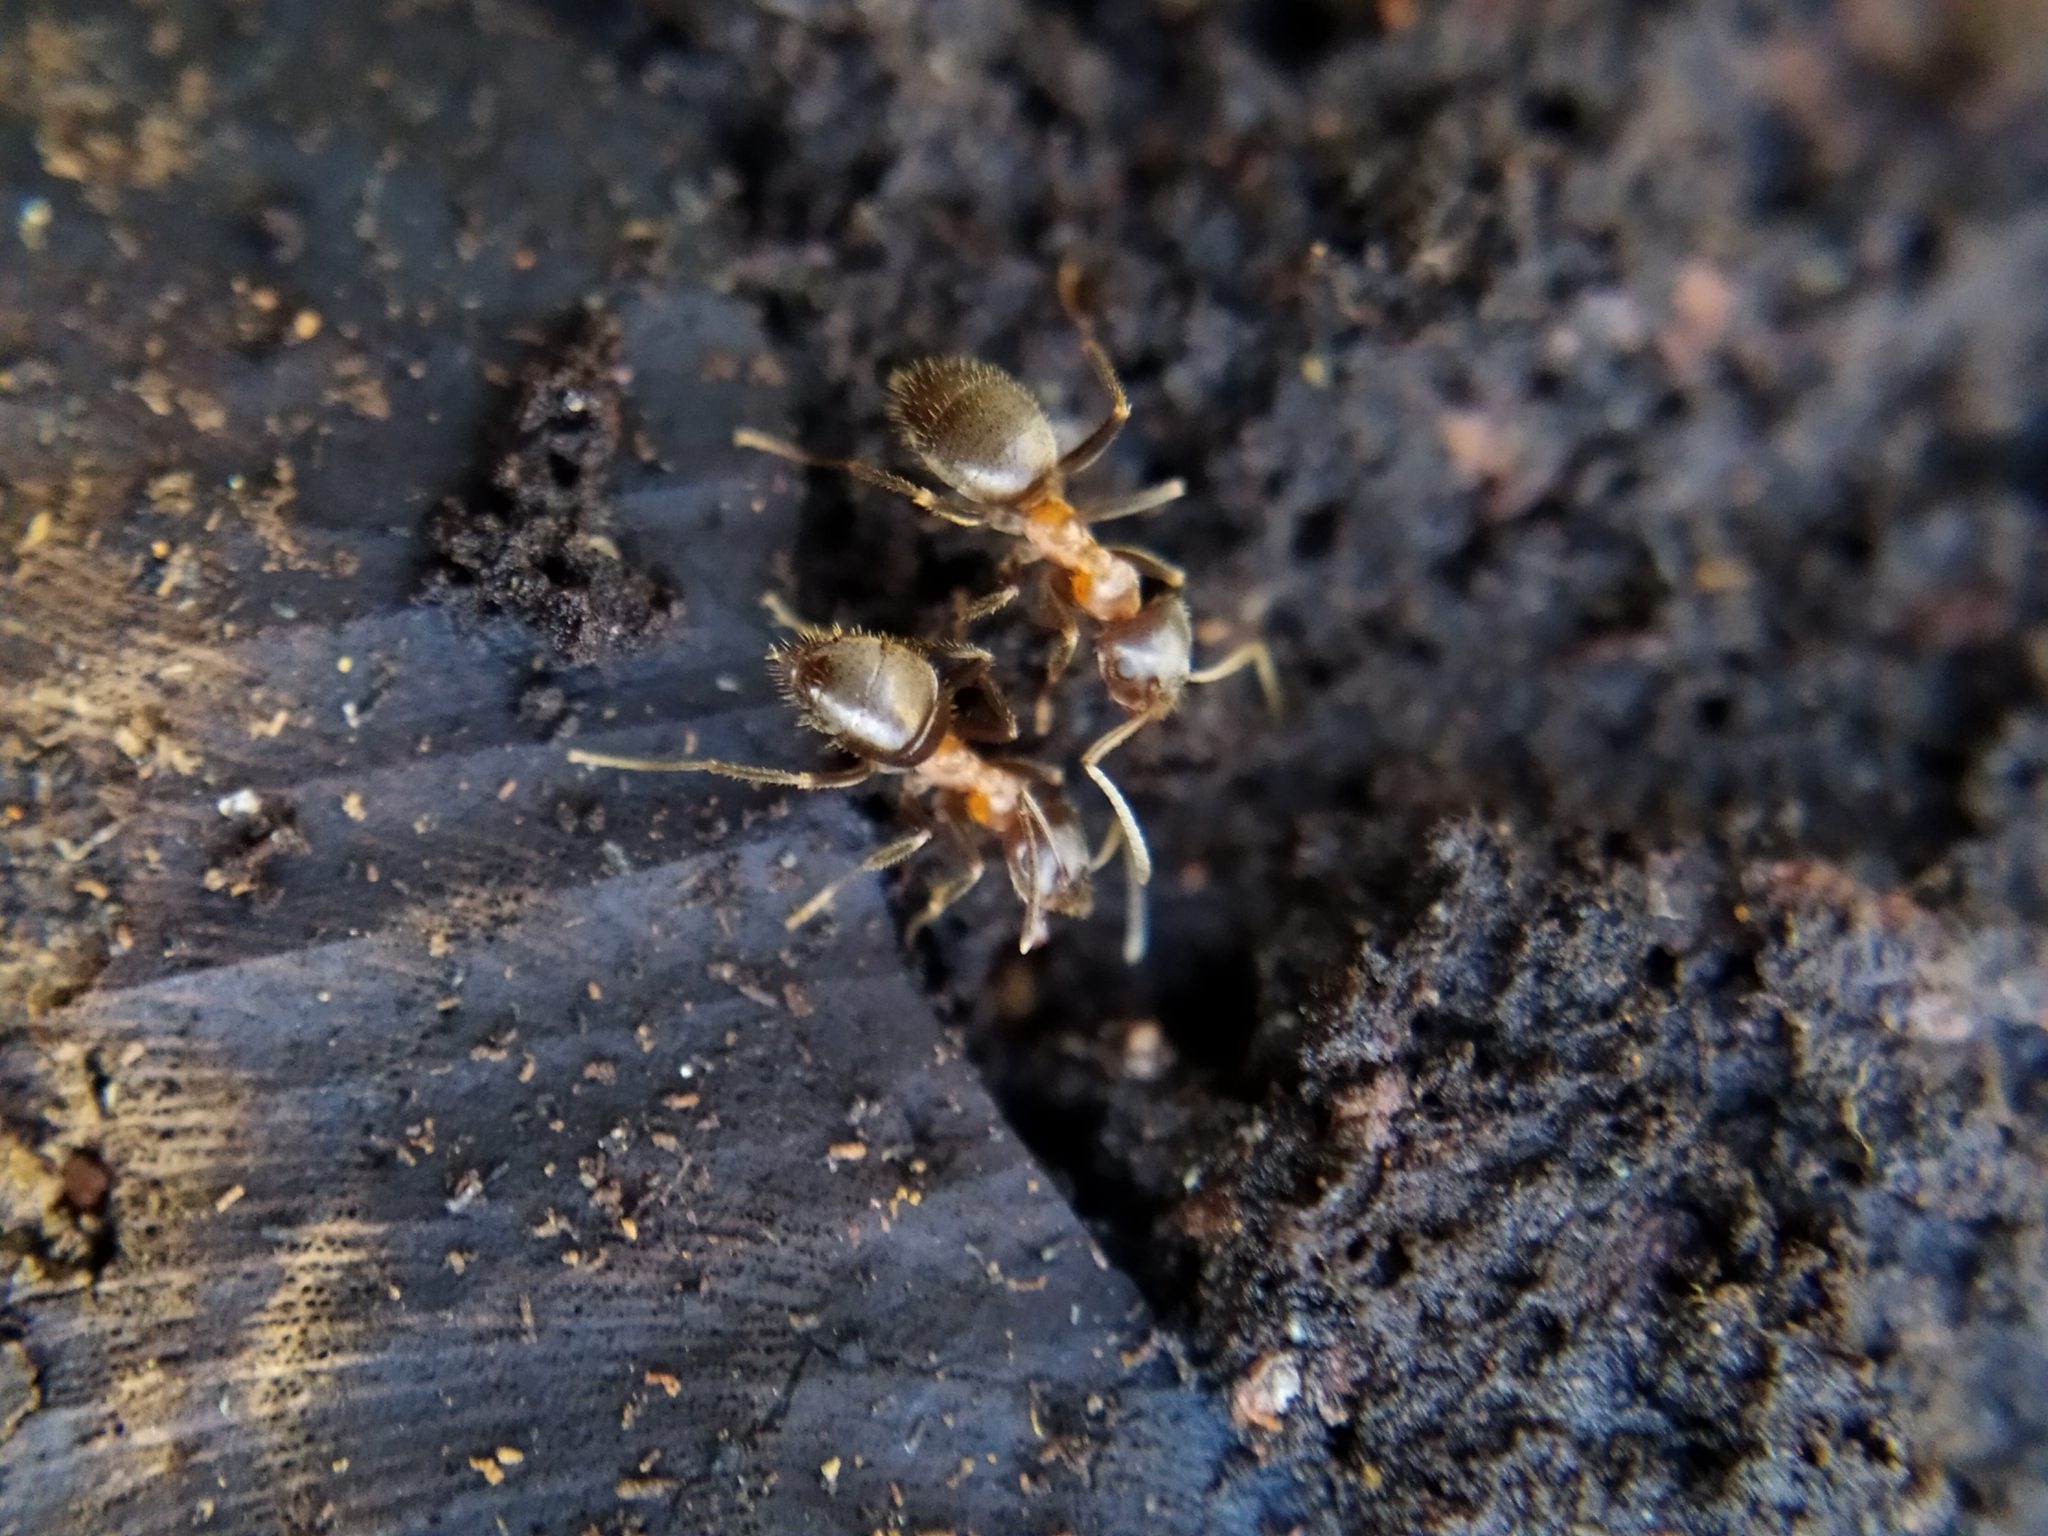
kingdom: Animalia
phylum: Arthropoda
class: Insecta
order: Hymenoptera
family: Formicidae
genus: Lasius
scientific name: Lasius emarginatus
